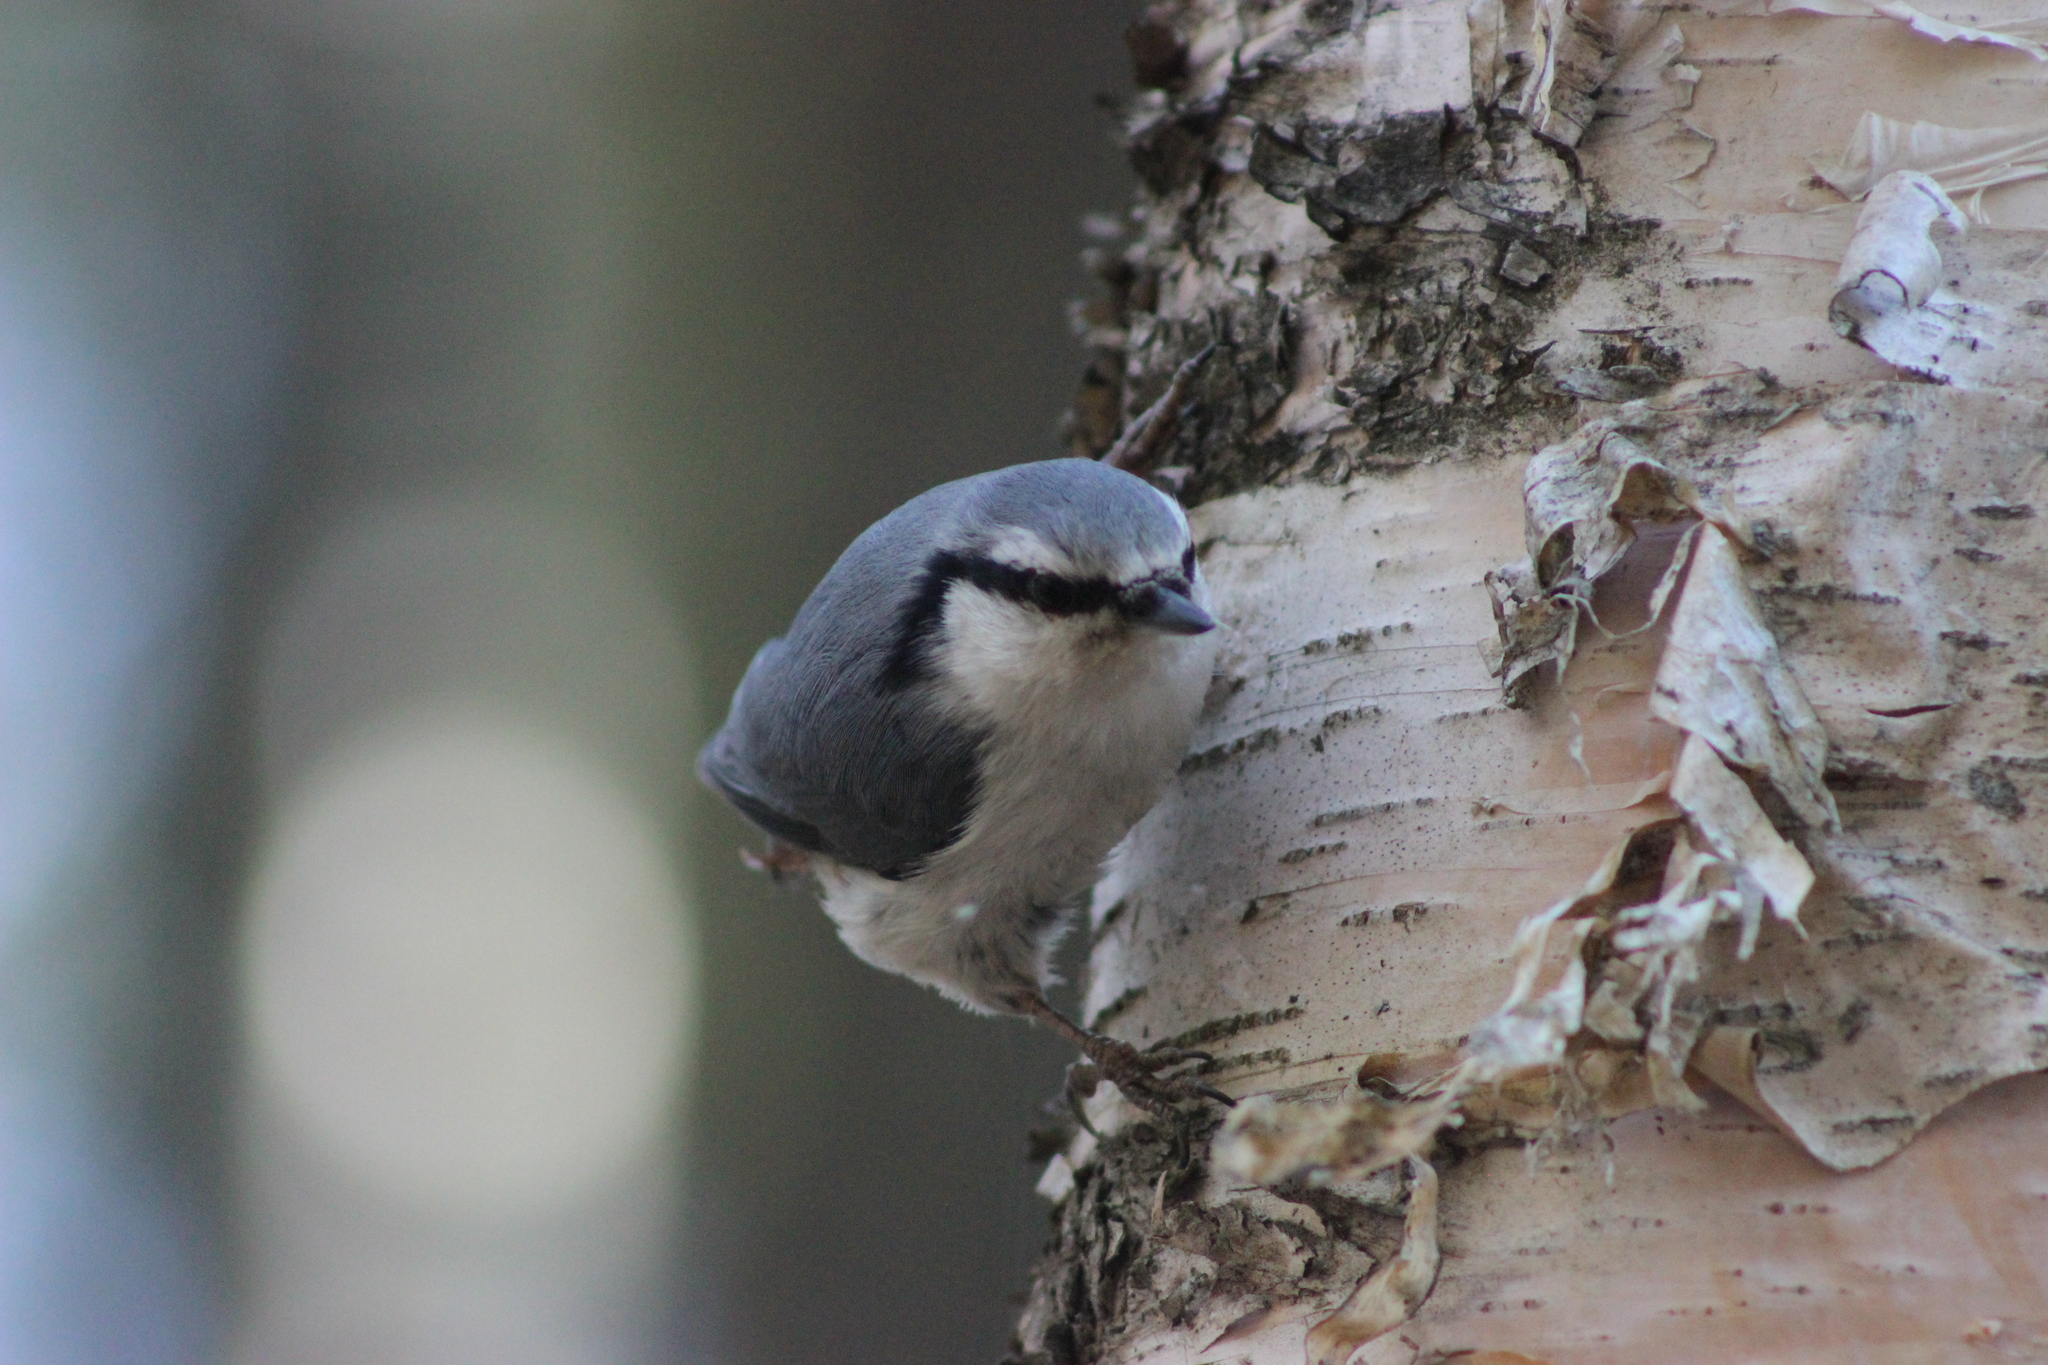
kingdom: Animalia
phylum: Chordata
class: Aves
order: Passeriformes
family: Sittidae
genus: Sitta
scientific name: Sitta europaea
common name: Eurasian nuthatch
